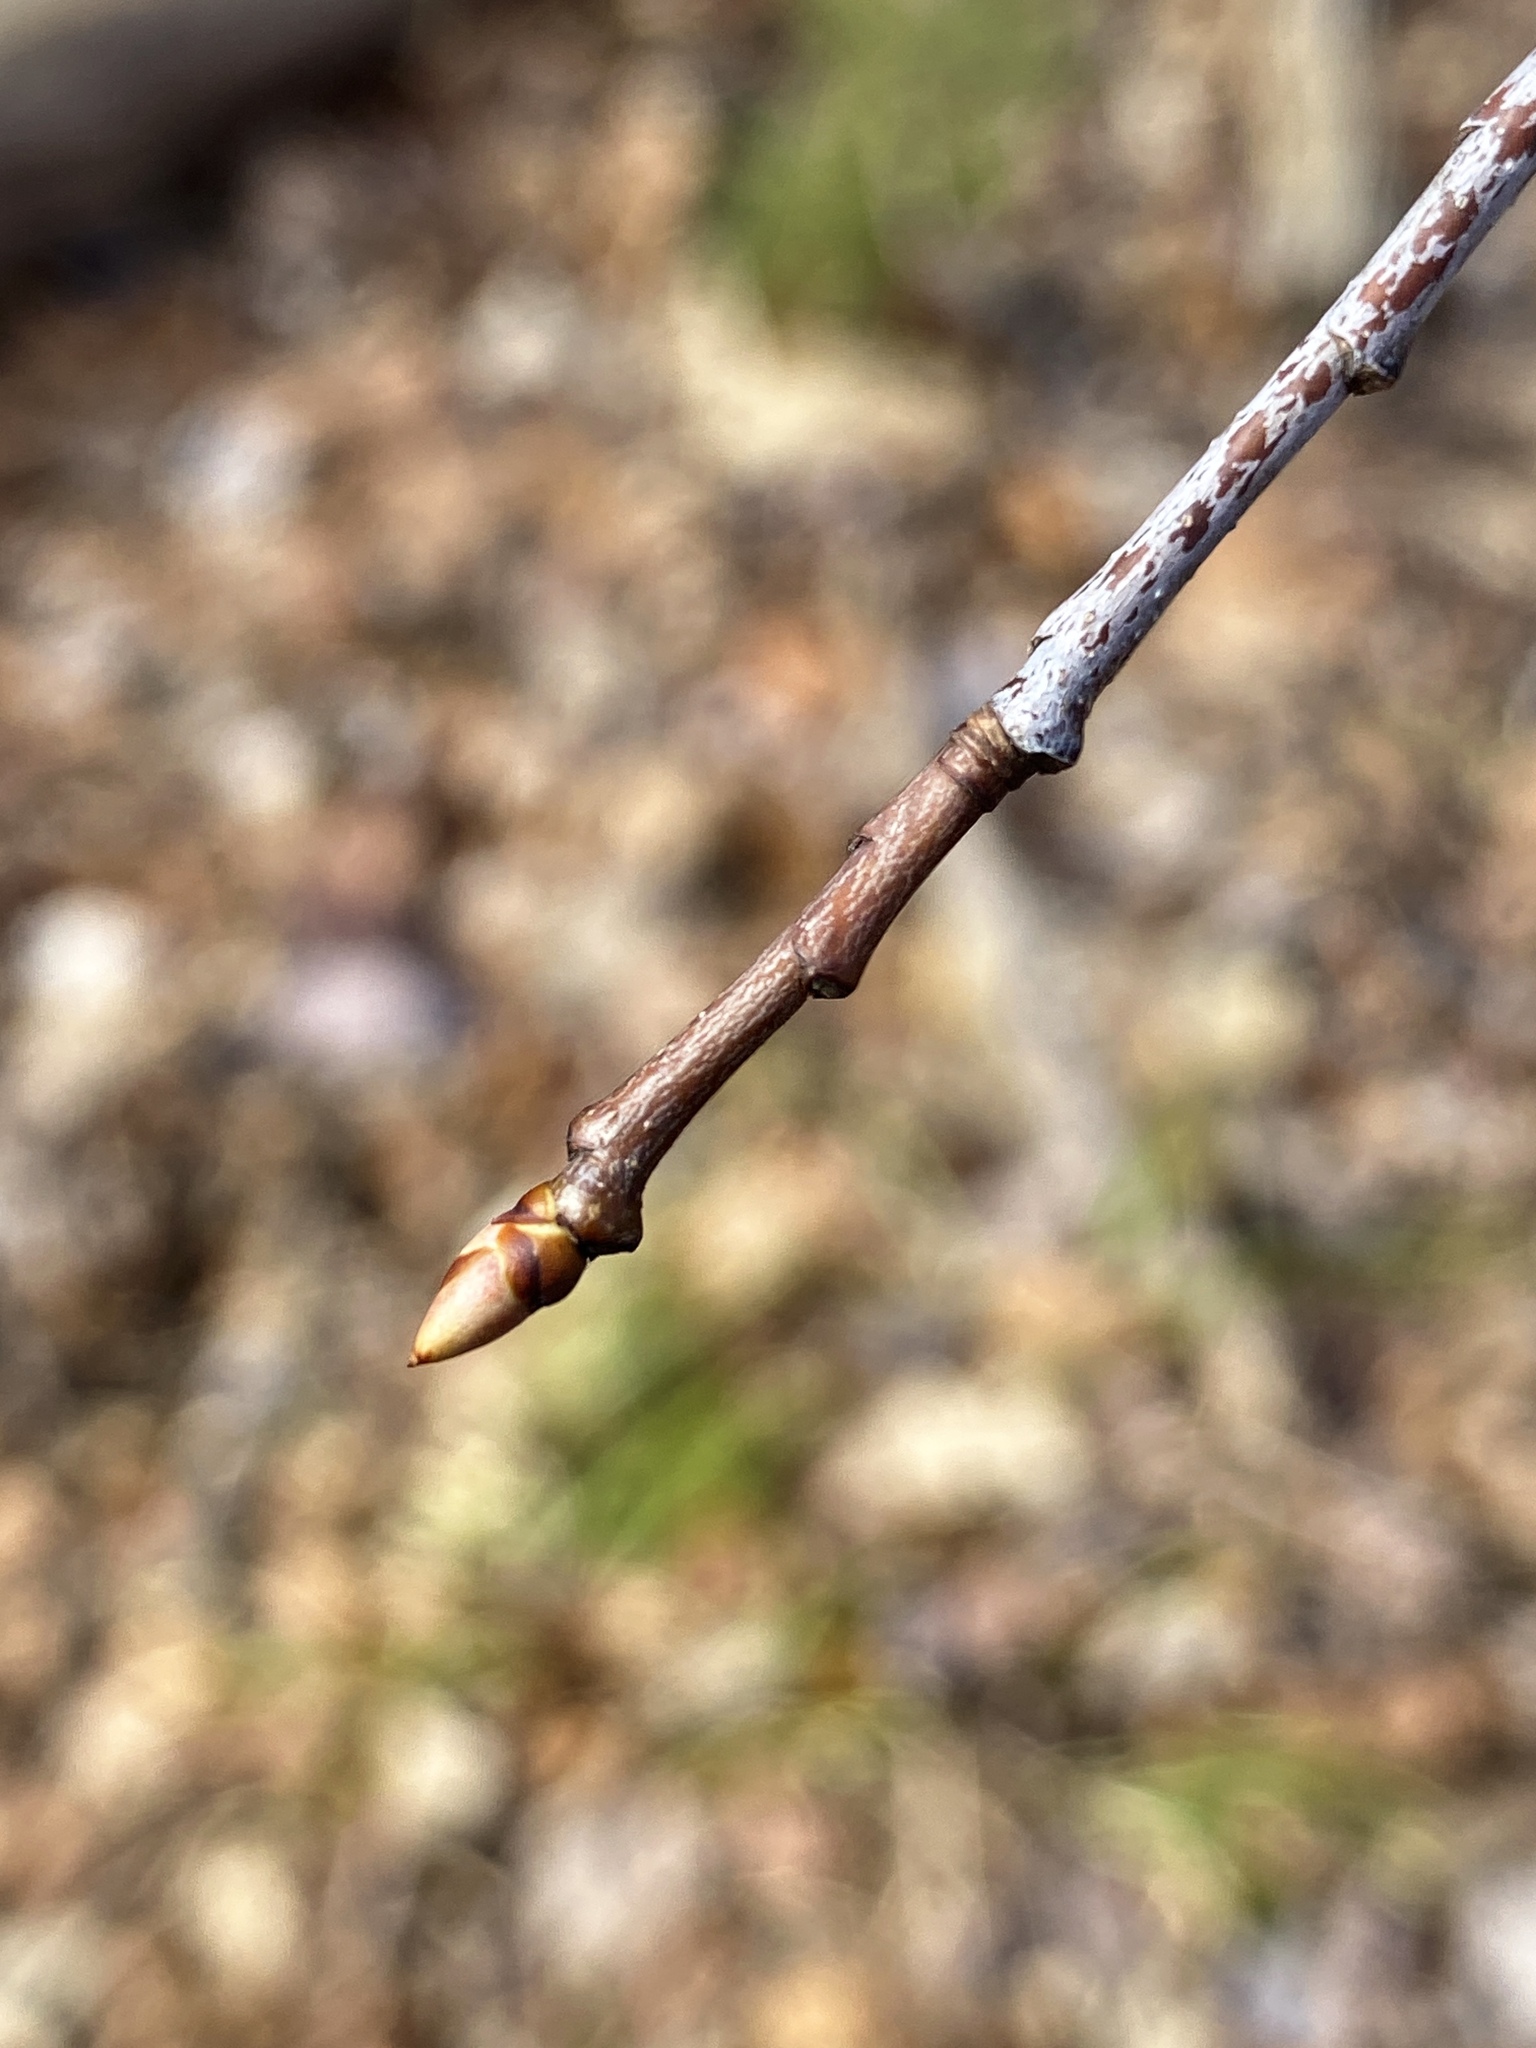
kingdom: Plantae
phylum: Tracheophyta
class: Magnoliopsida
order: Rosales
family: Rosaceae
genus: Prunus
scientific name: Prunus serotina
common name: Black cherry
